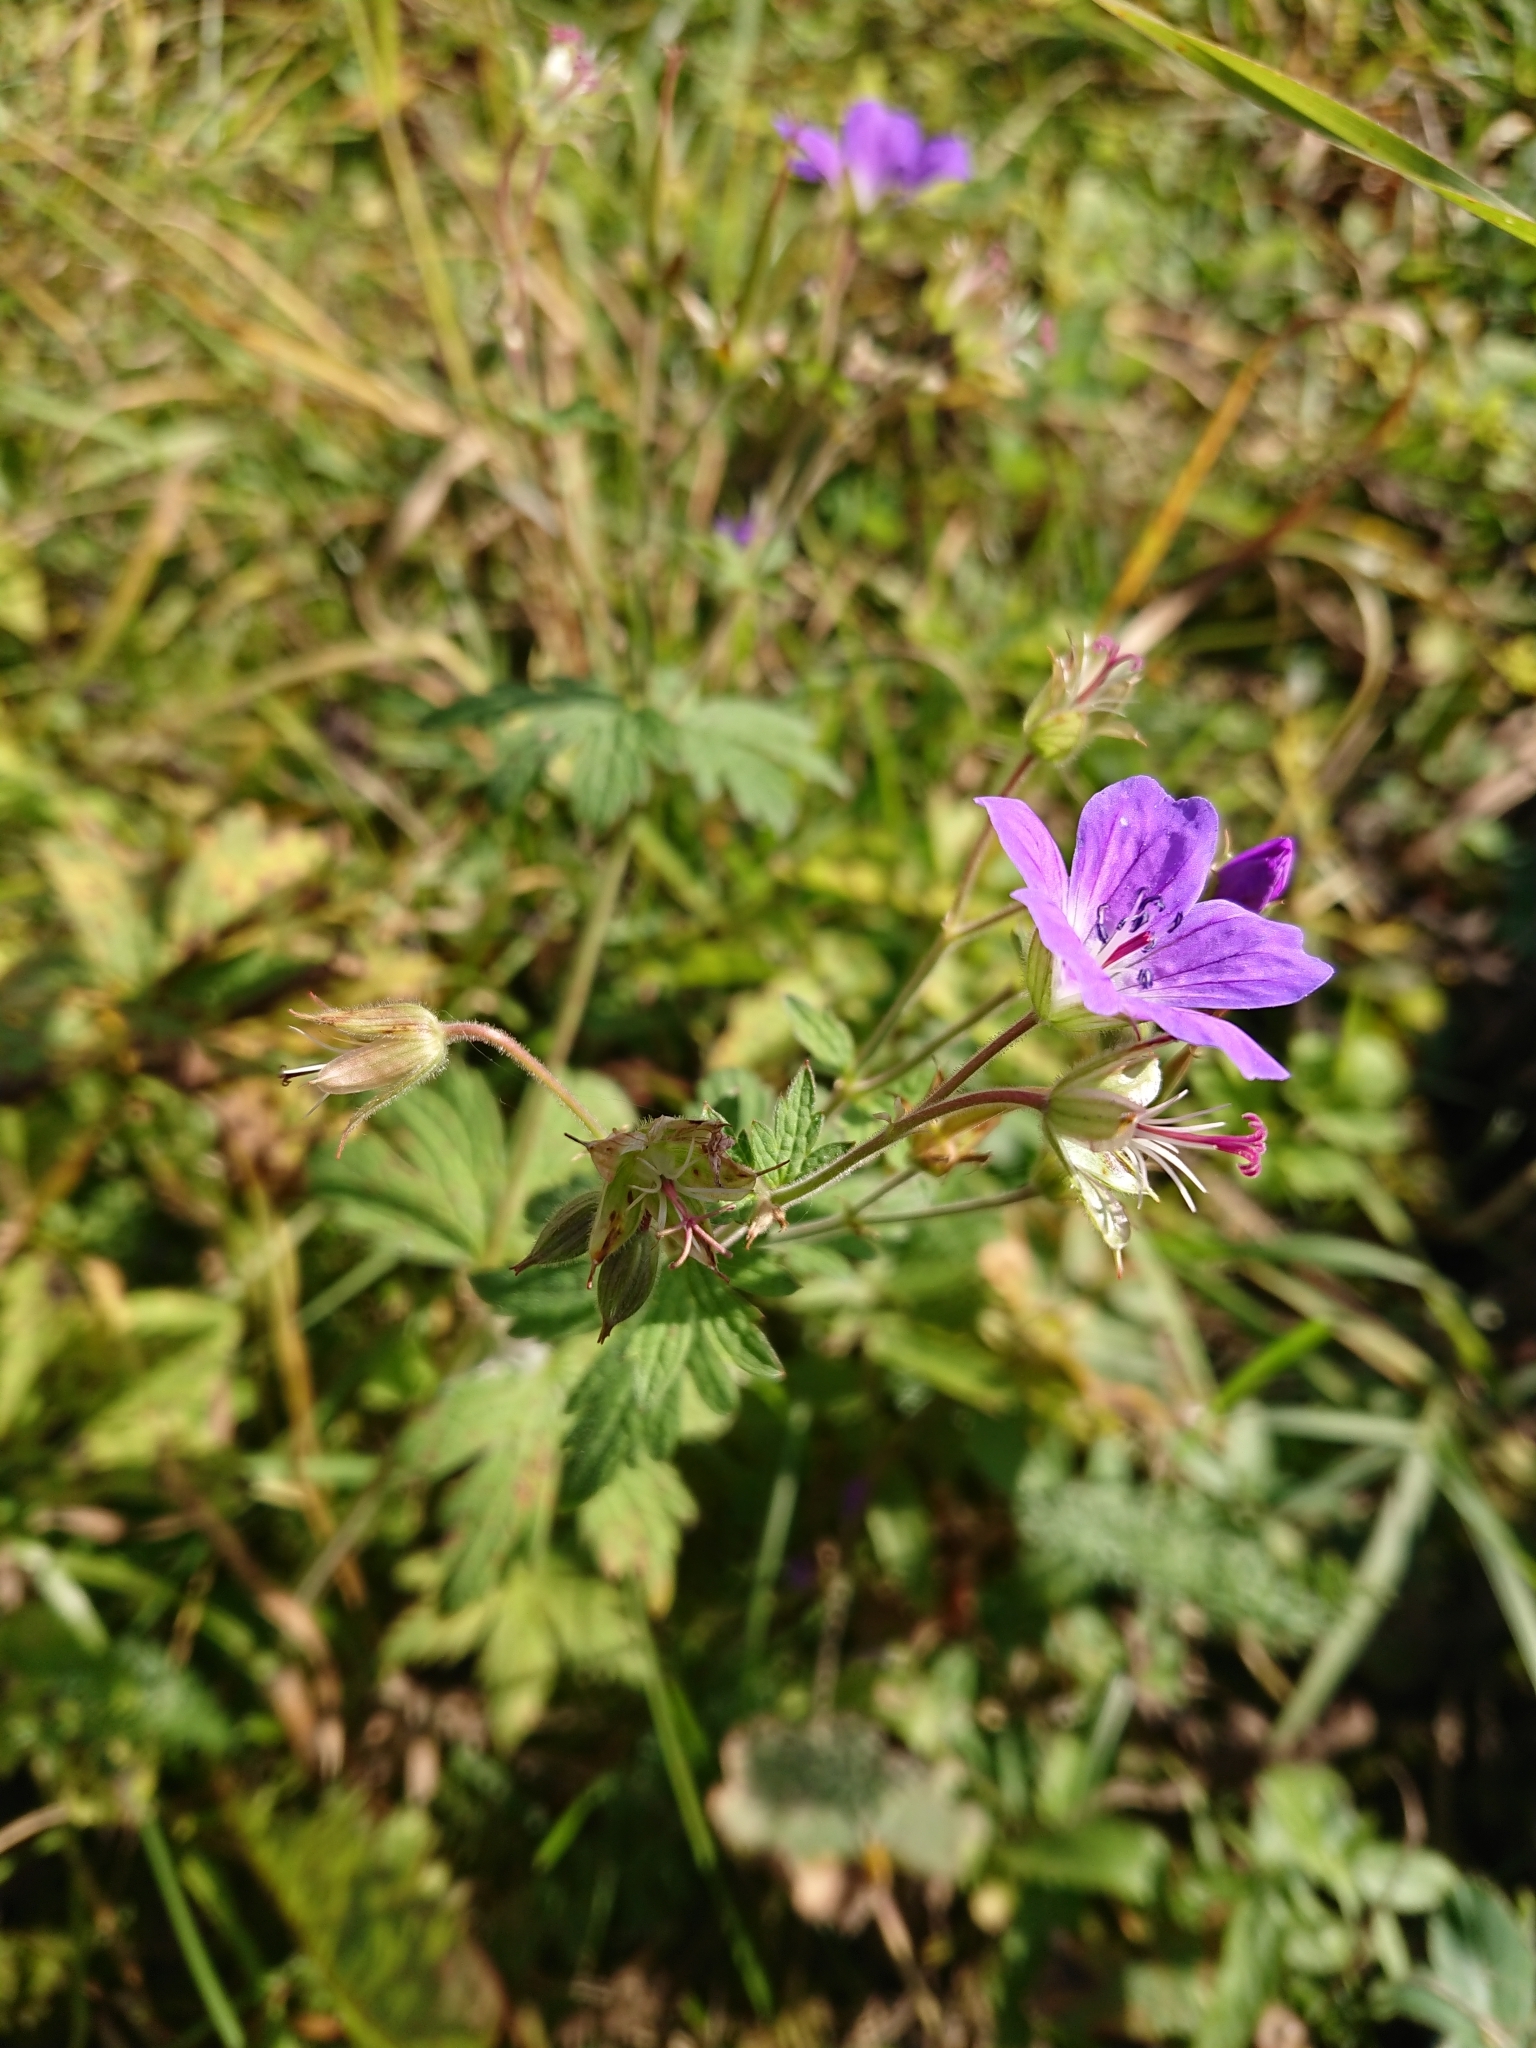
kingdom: Plantae
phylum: Tracheophyta
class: Magnoliopsida
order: Geraniales
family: Geraniaceae
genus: Geranium
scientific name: Geranium sylvaticum
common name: Wood crane's-bill
